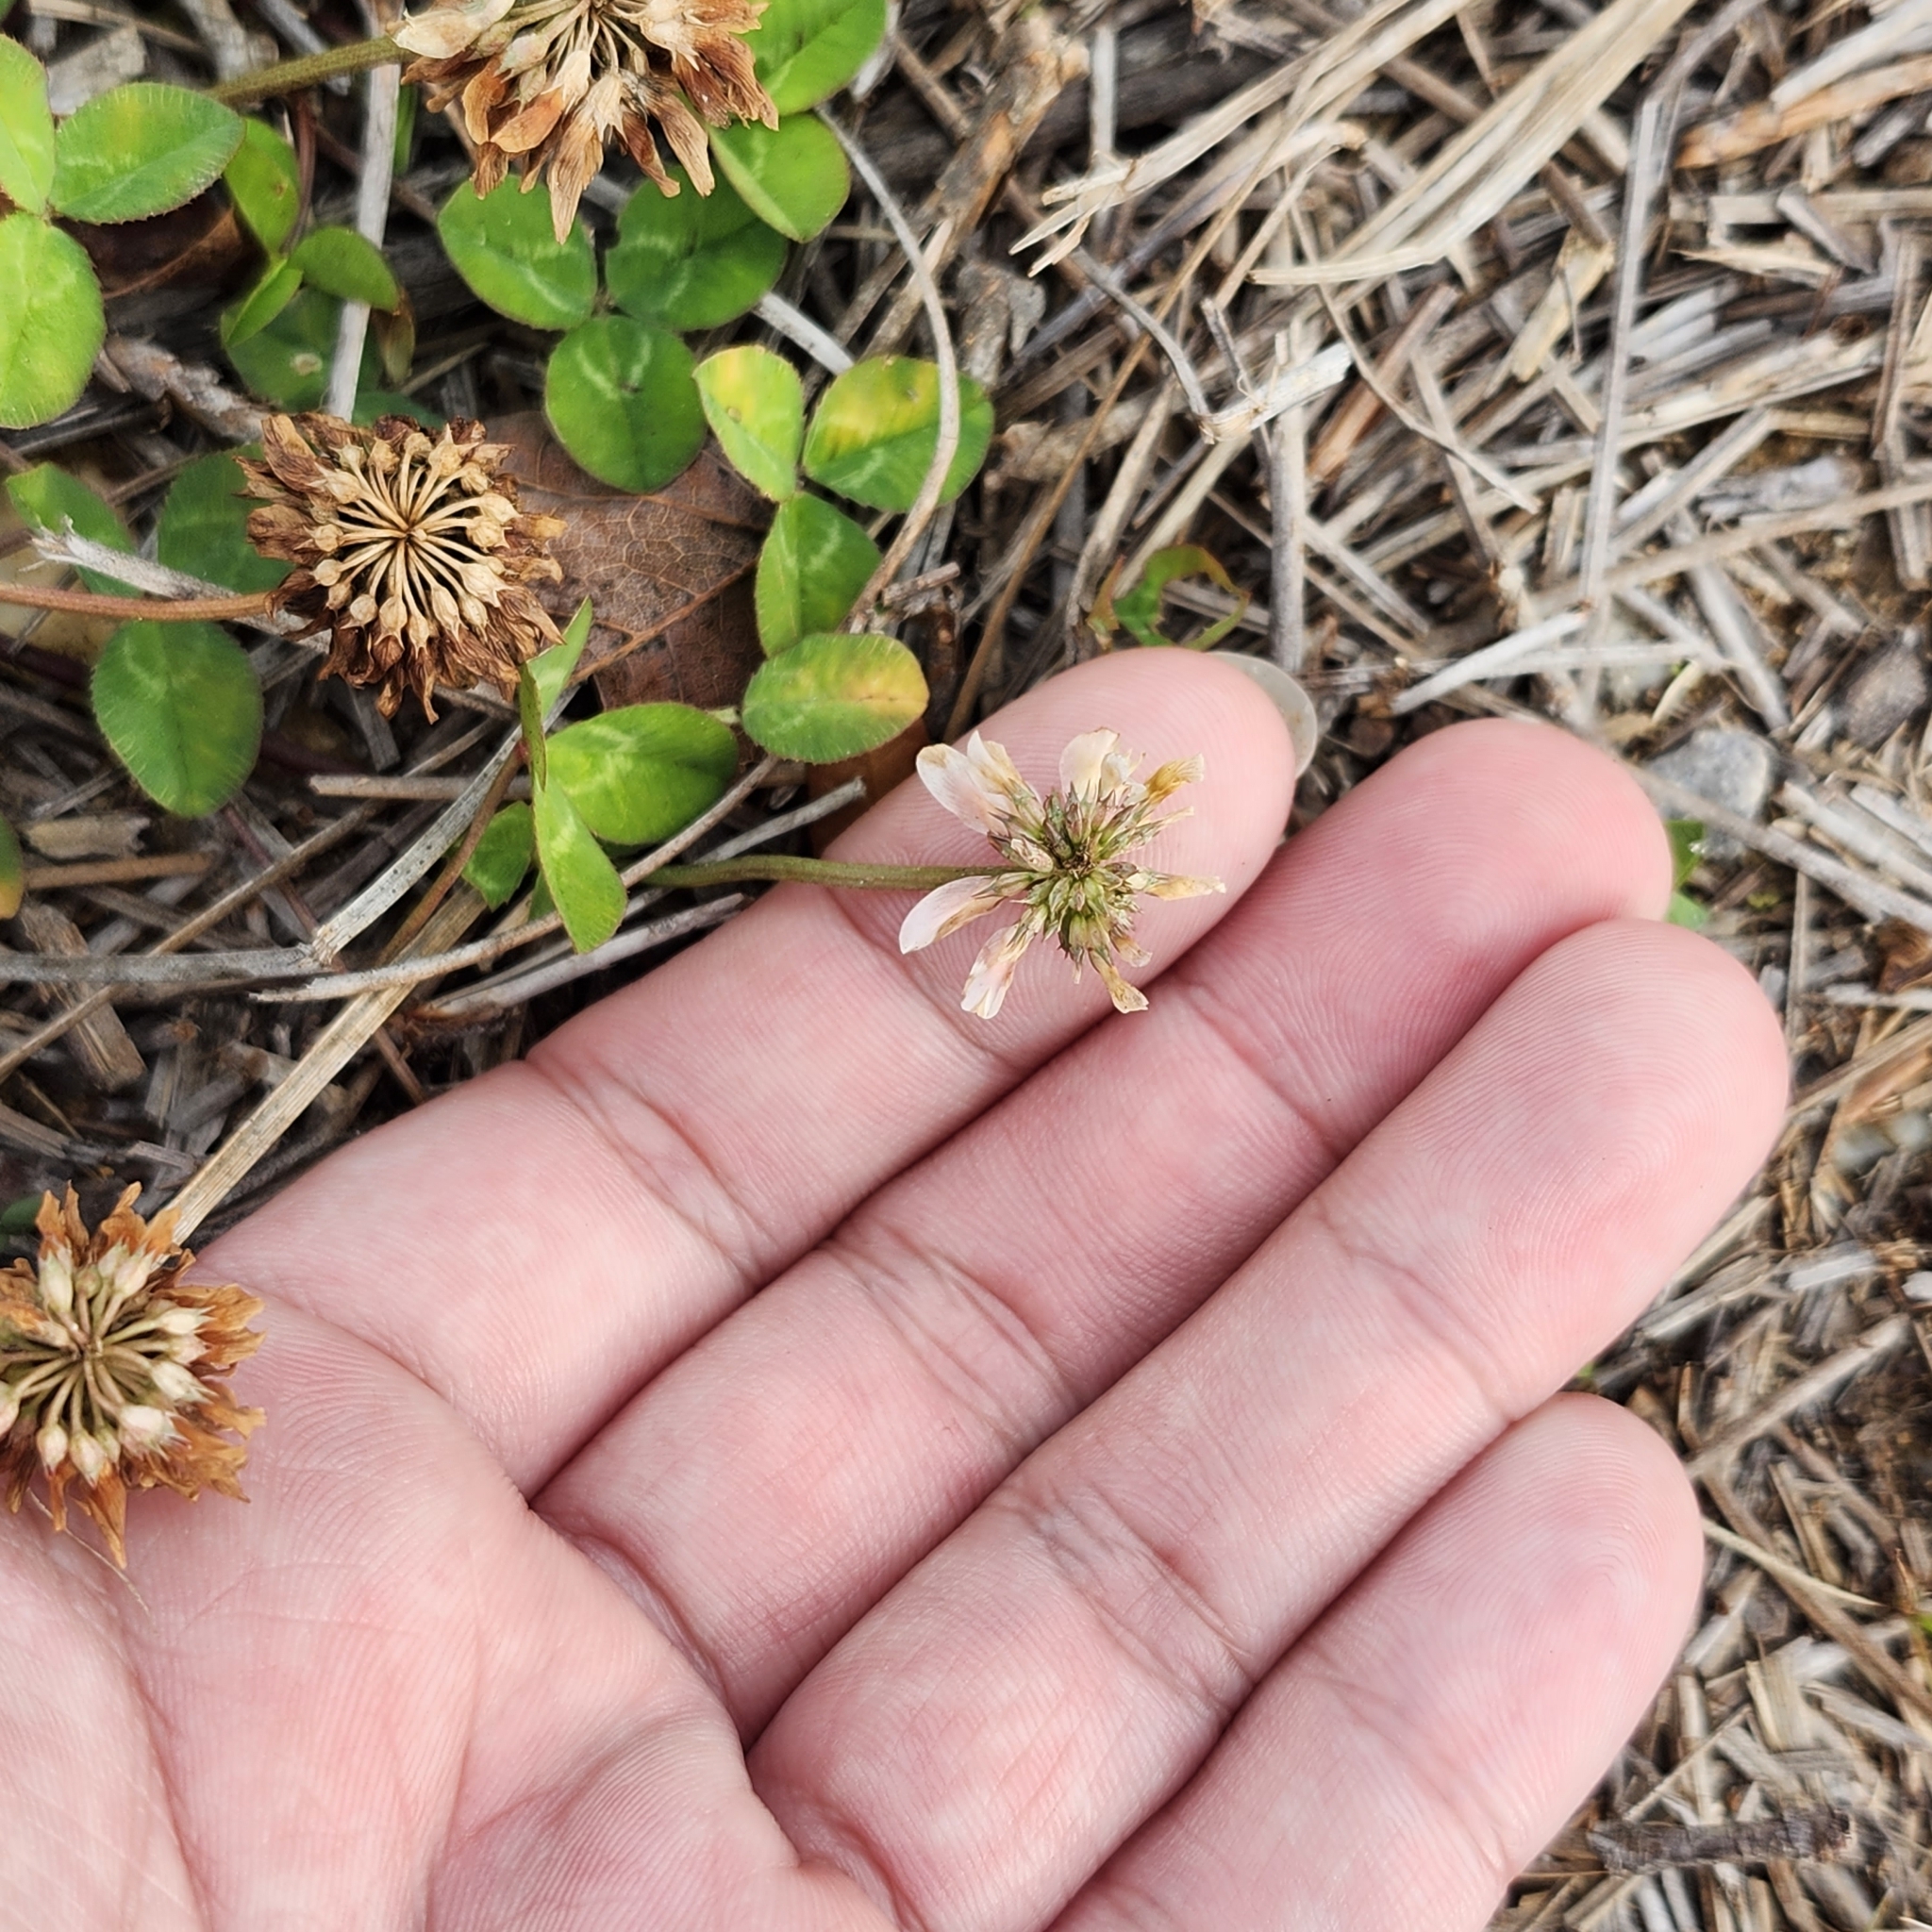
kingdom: Plantae
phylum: Tracheophyta
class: Magnoliopsida
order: Fabales
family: Fabaceae
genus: Trifolium
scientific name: Trifolium repens
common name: White clover
